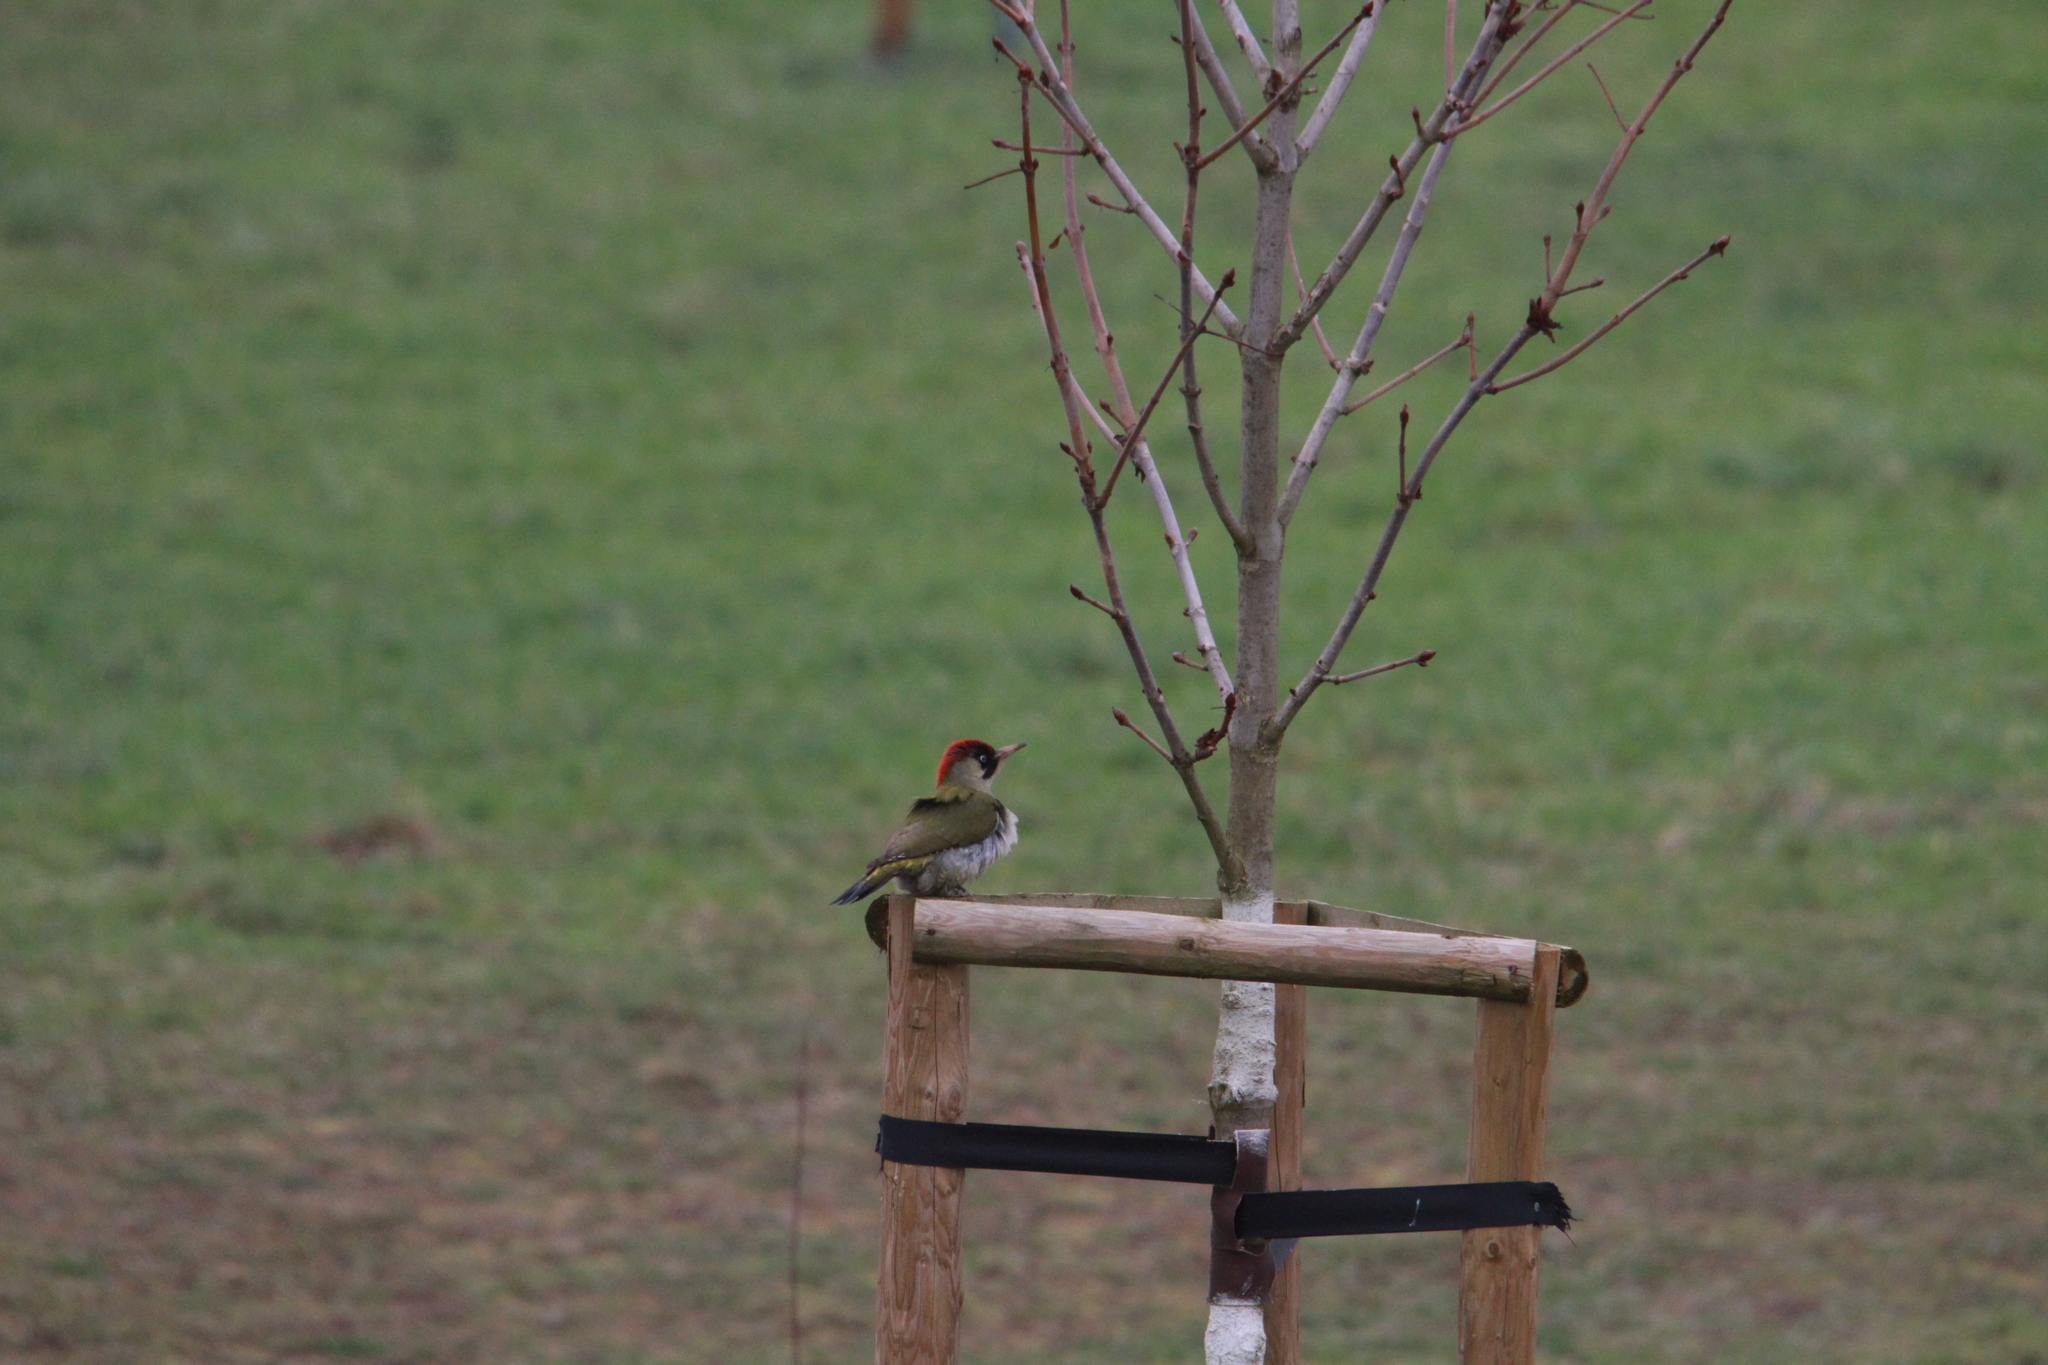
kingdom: Animalia
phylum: Chordata
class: Aves
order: Piciformes
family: Picidae
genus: Picus
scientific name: Picus viridis
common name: European green woodpecker
